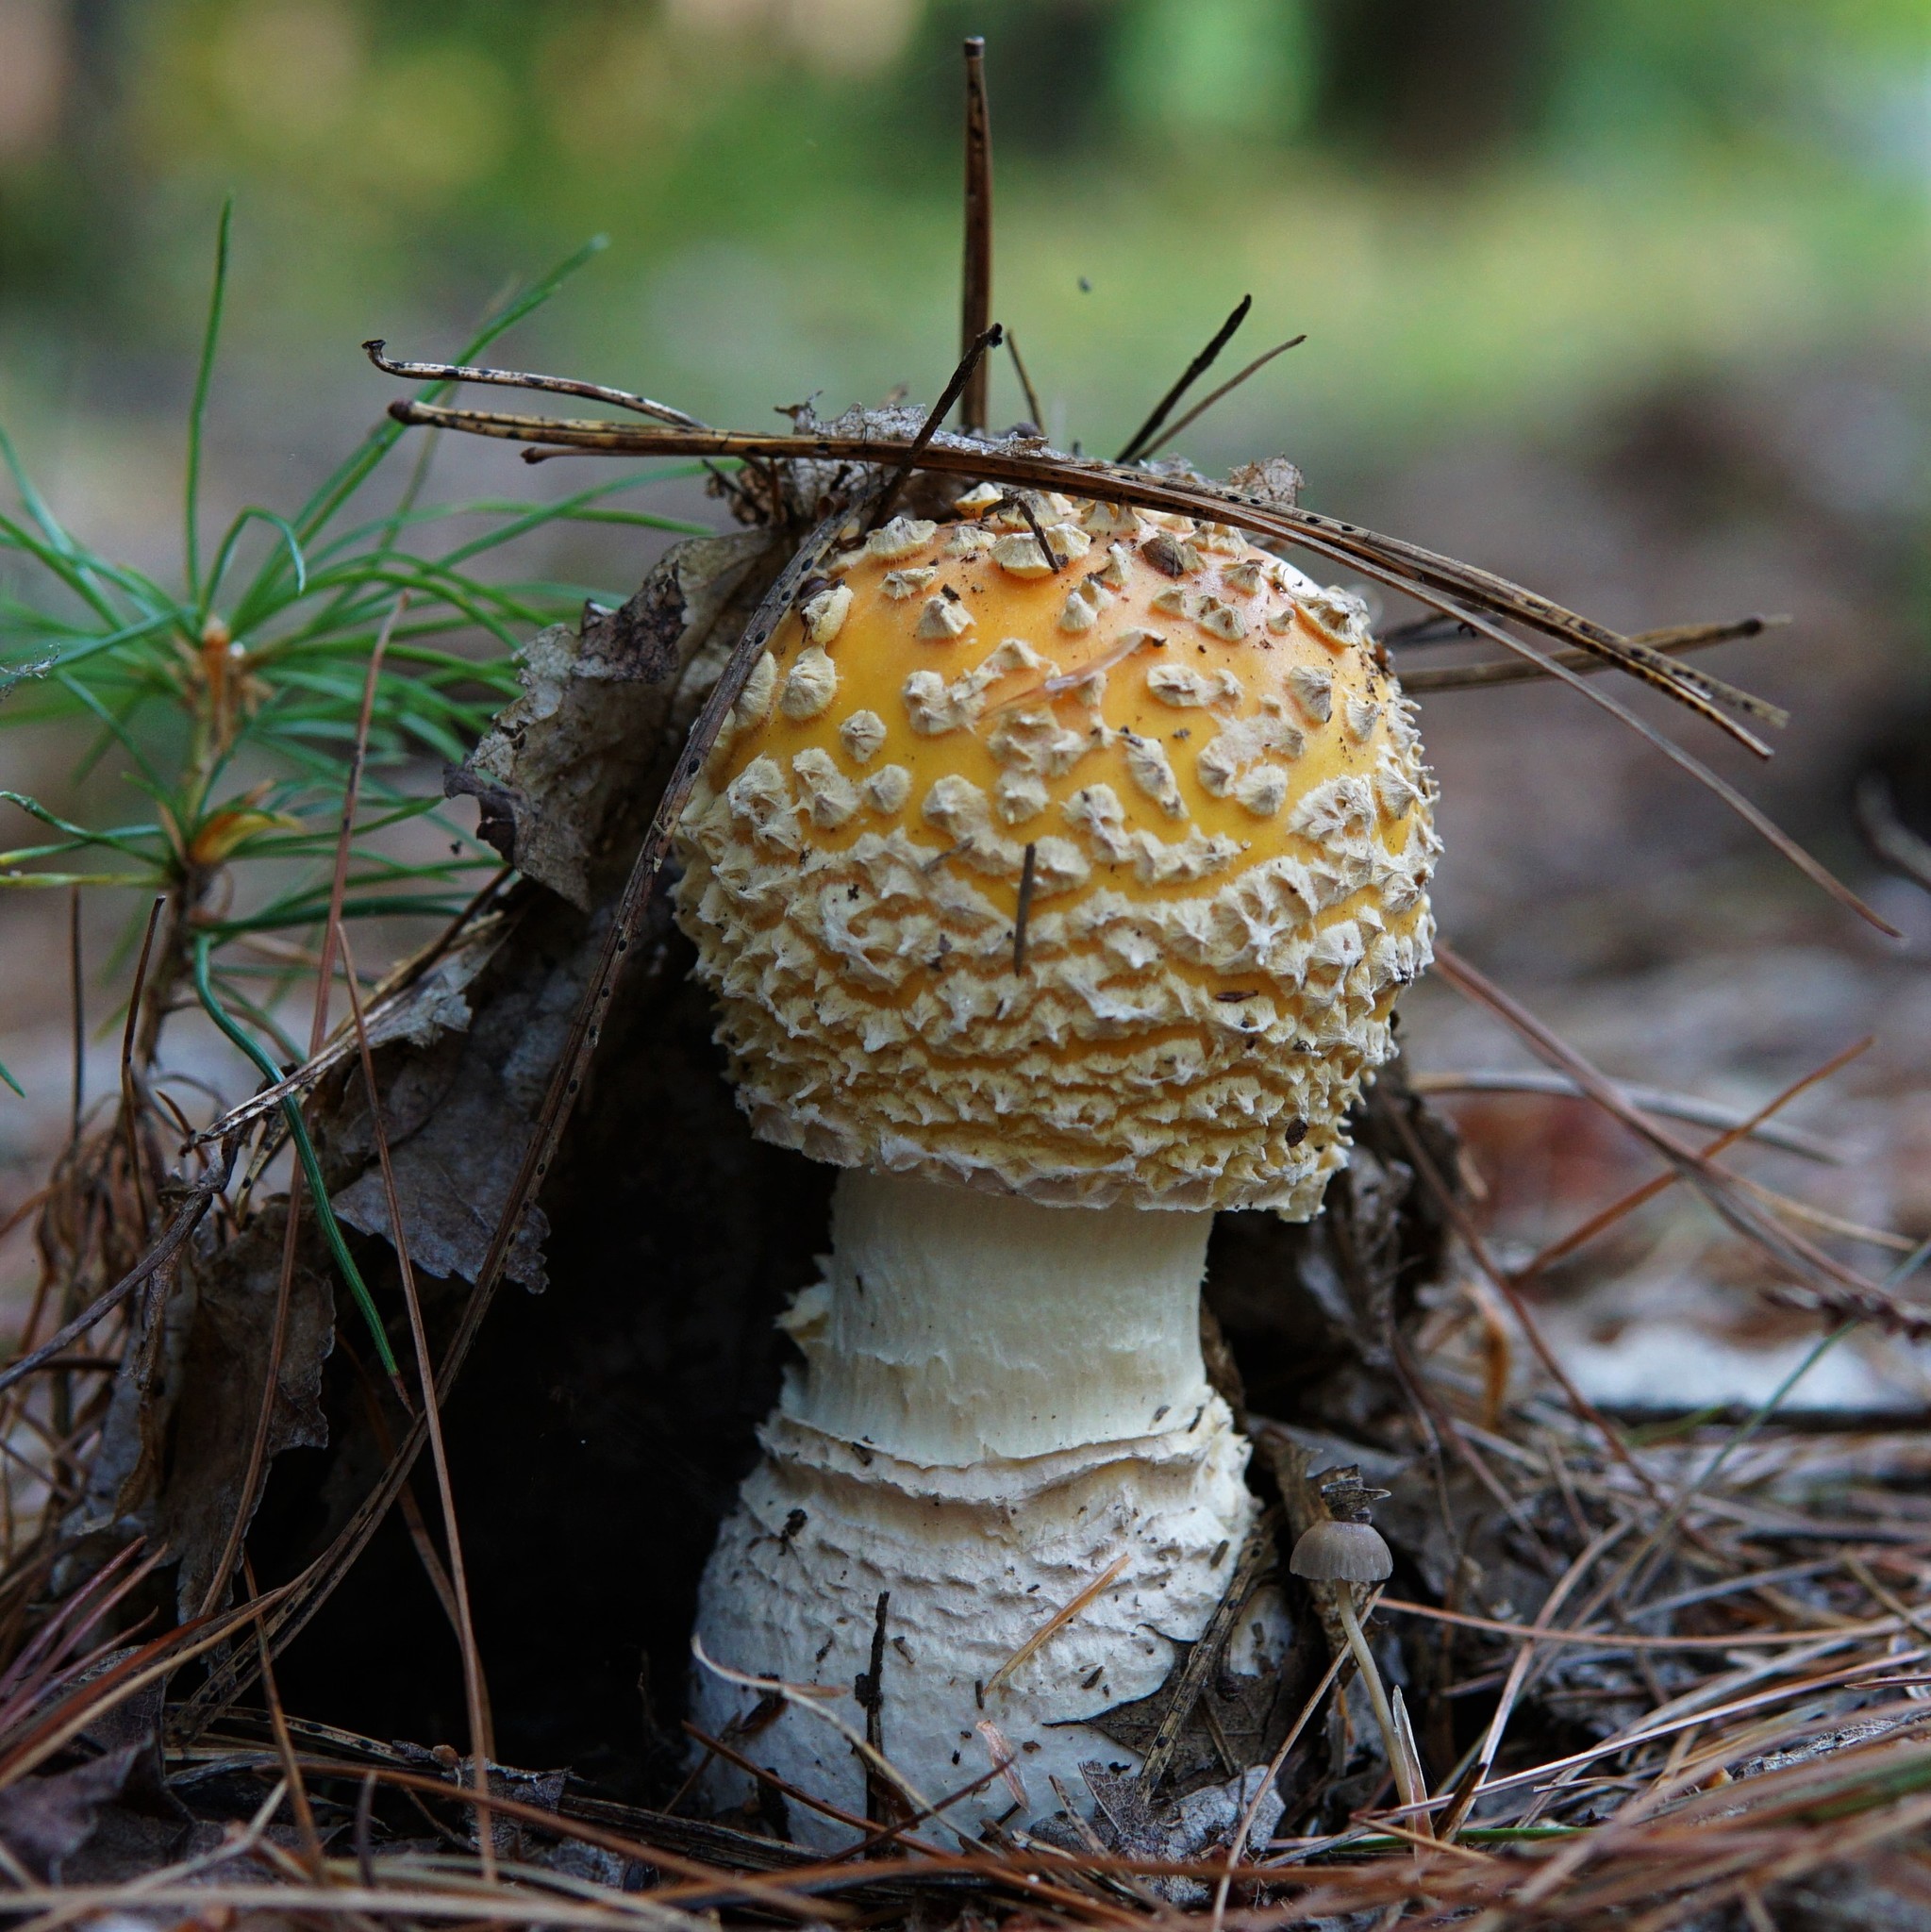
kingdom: Fungi
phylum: Basidiomycota
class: Agaricomycetes
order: Agaricales
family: Amanitaceae
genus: Amanita
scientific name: Amanita muscaria
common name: Fly agaric
